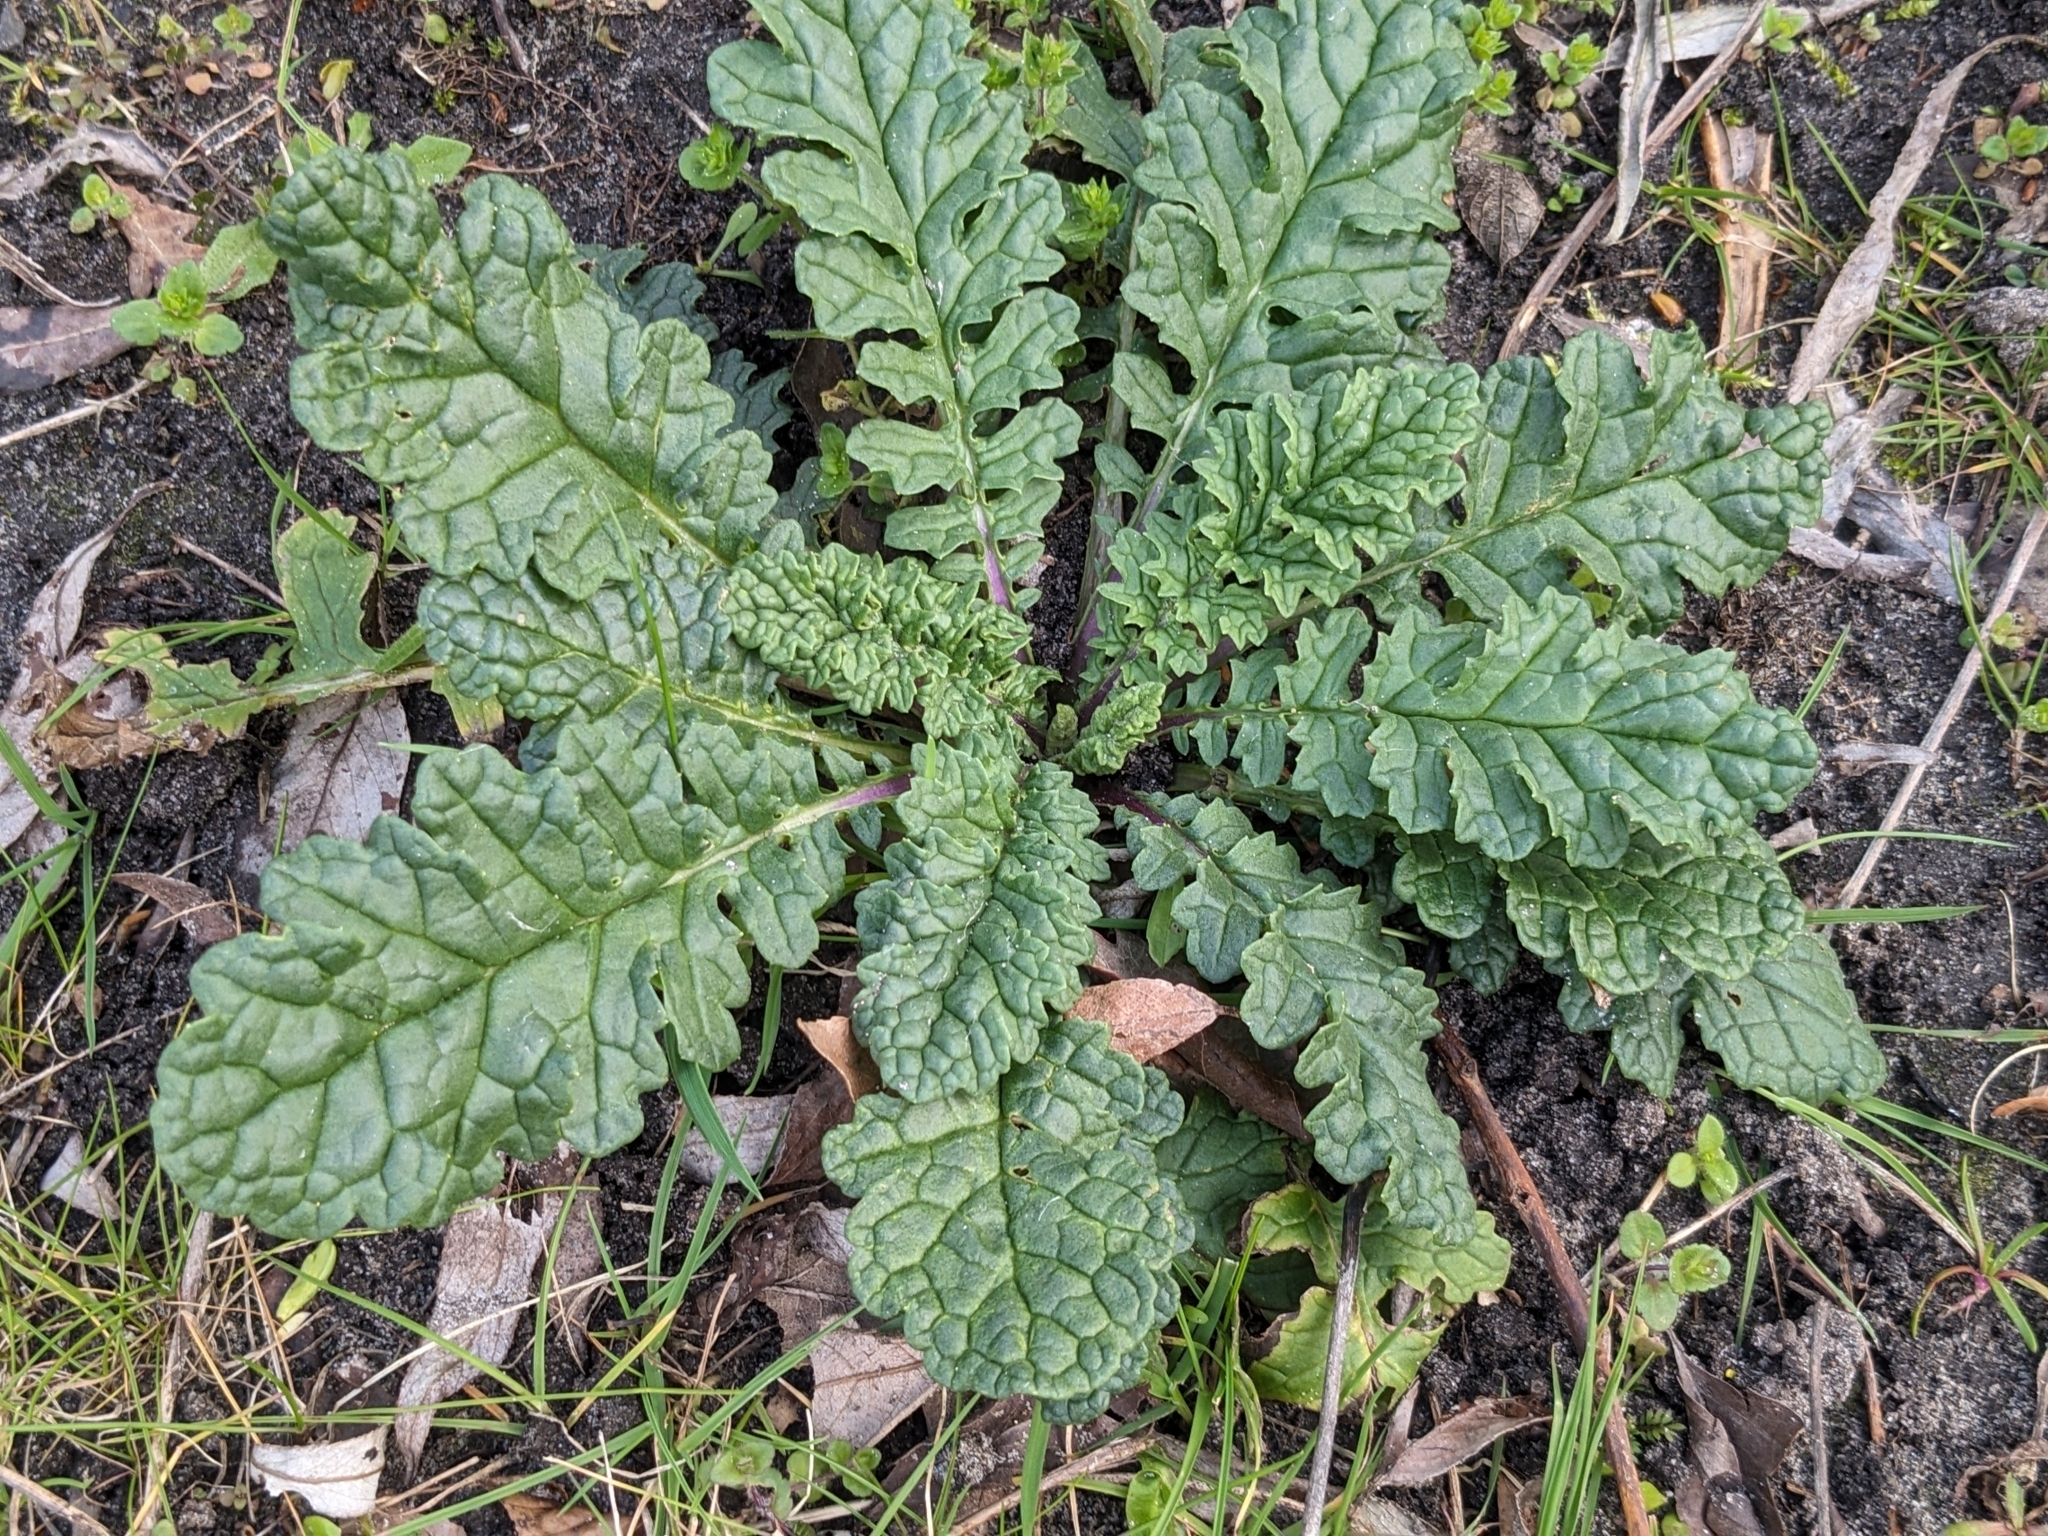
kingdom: Plantae
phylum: Tracheophyta
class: Magnoliopsida
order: Asterales
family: Asteraceae
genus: Jacobaea
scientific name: Jacobaea vulgaris
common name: Stinking willie
